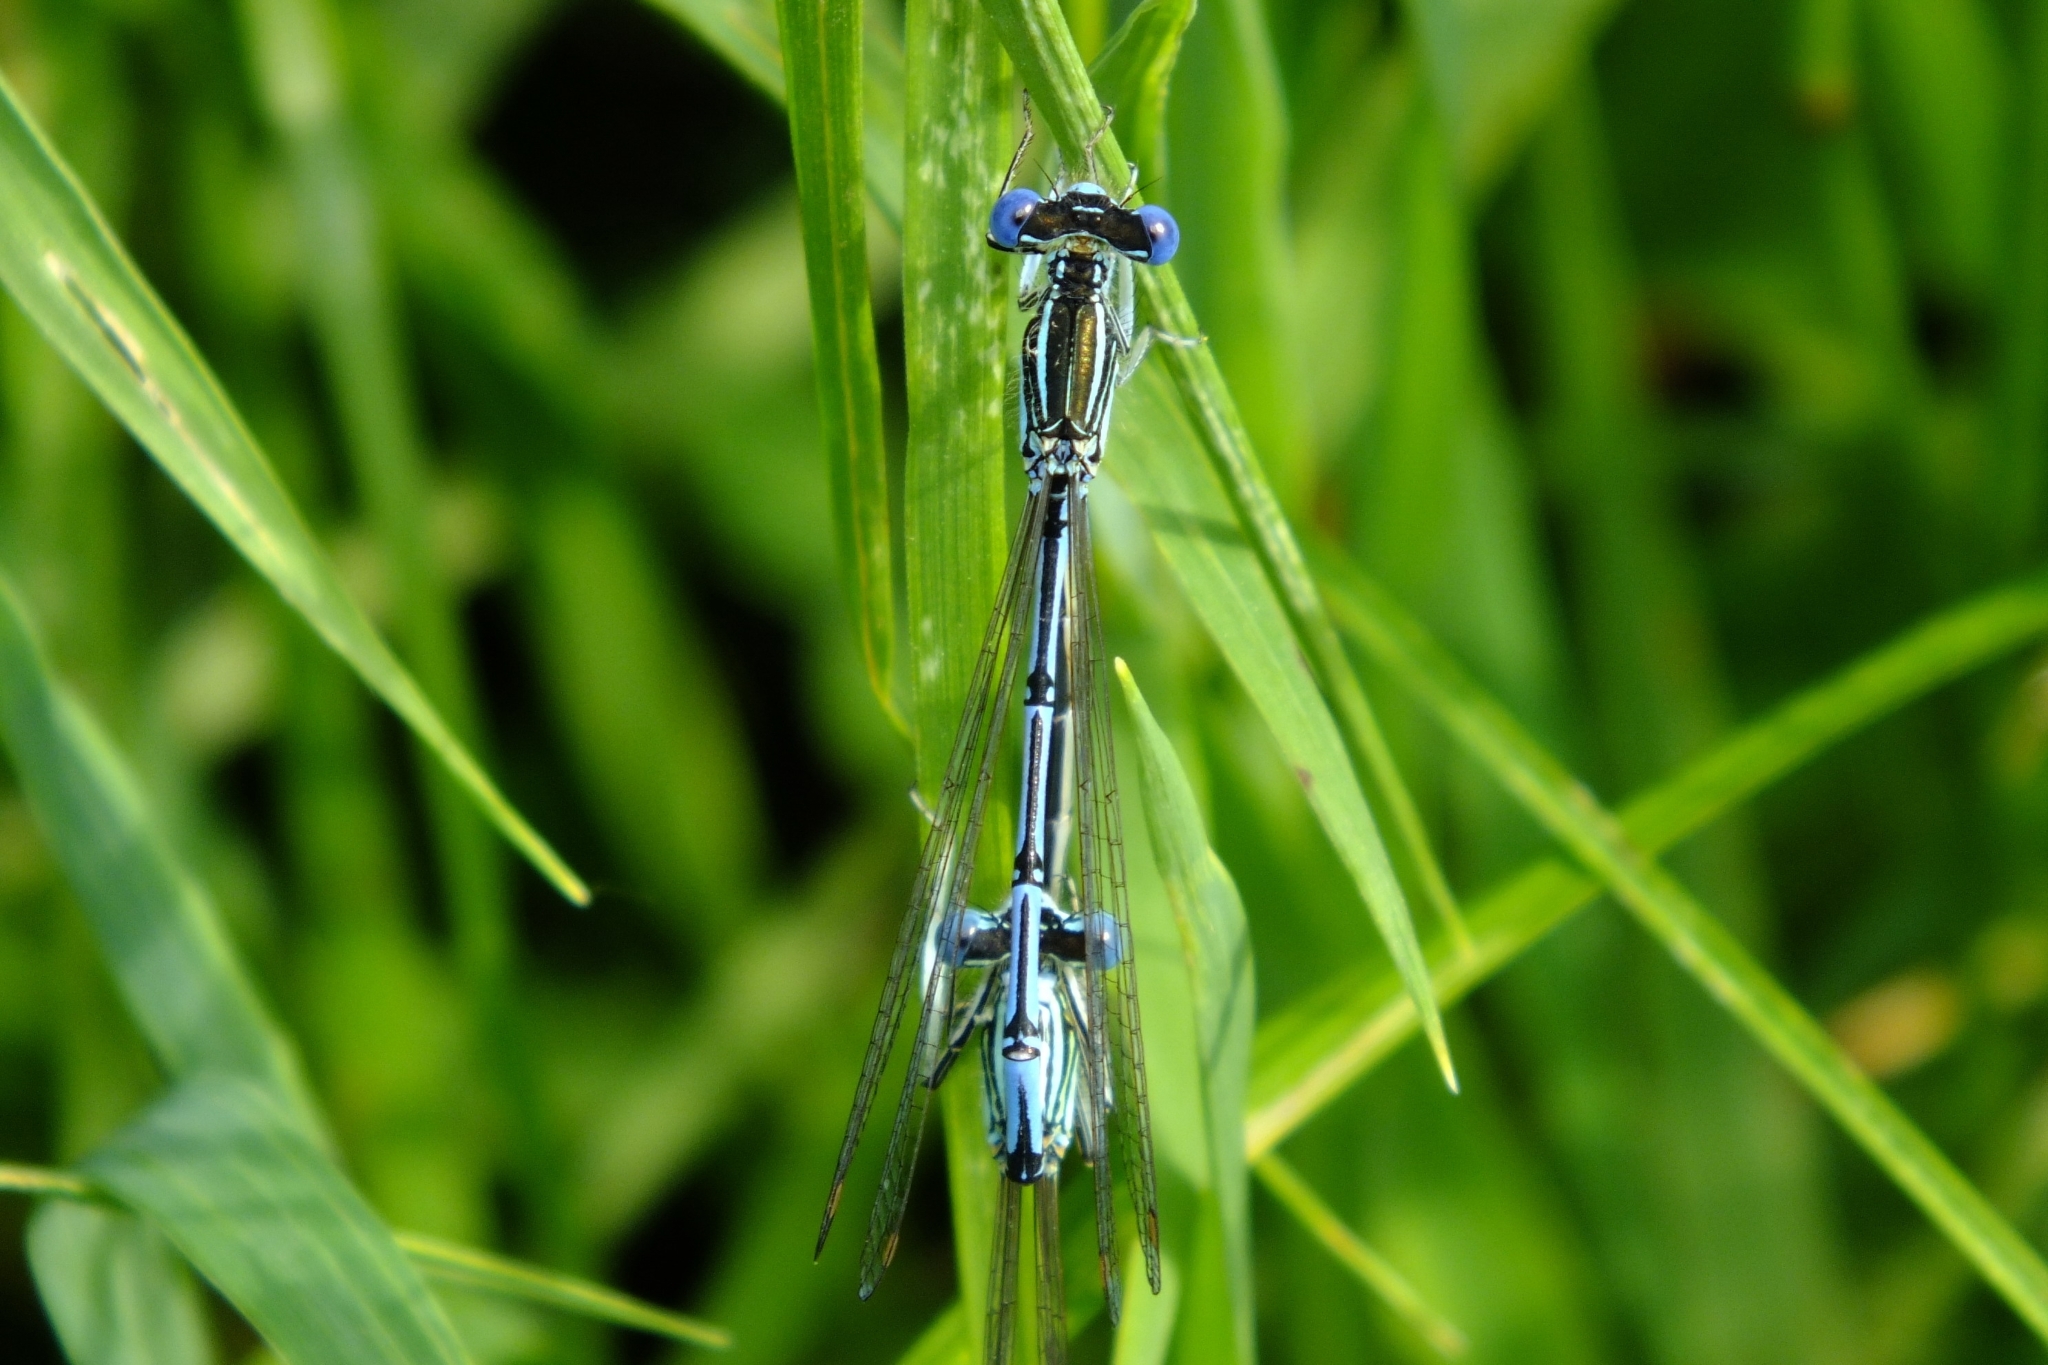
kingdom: Animalia
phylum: Arthropoda
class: Insecta
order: Odonata
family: Platycnemididae
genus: Platycnemis
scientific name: Platycnemis pennipes
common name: White-legged damselfly
